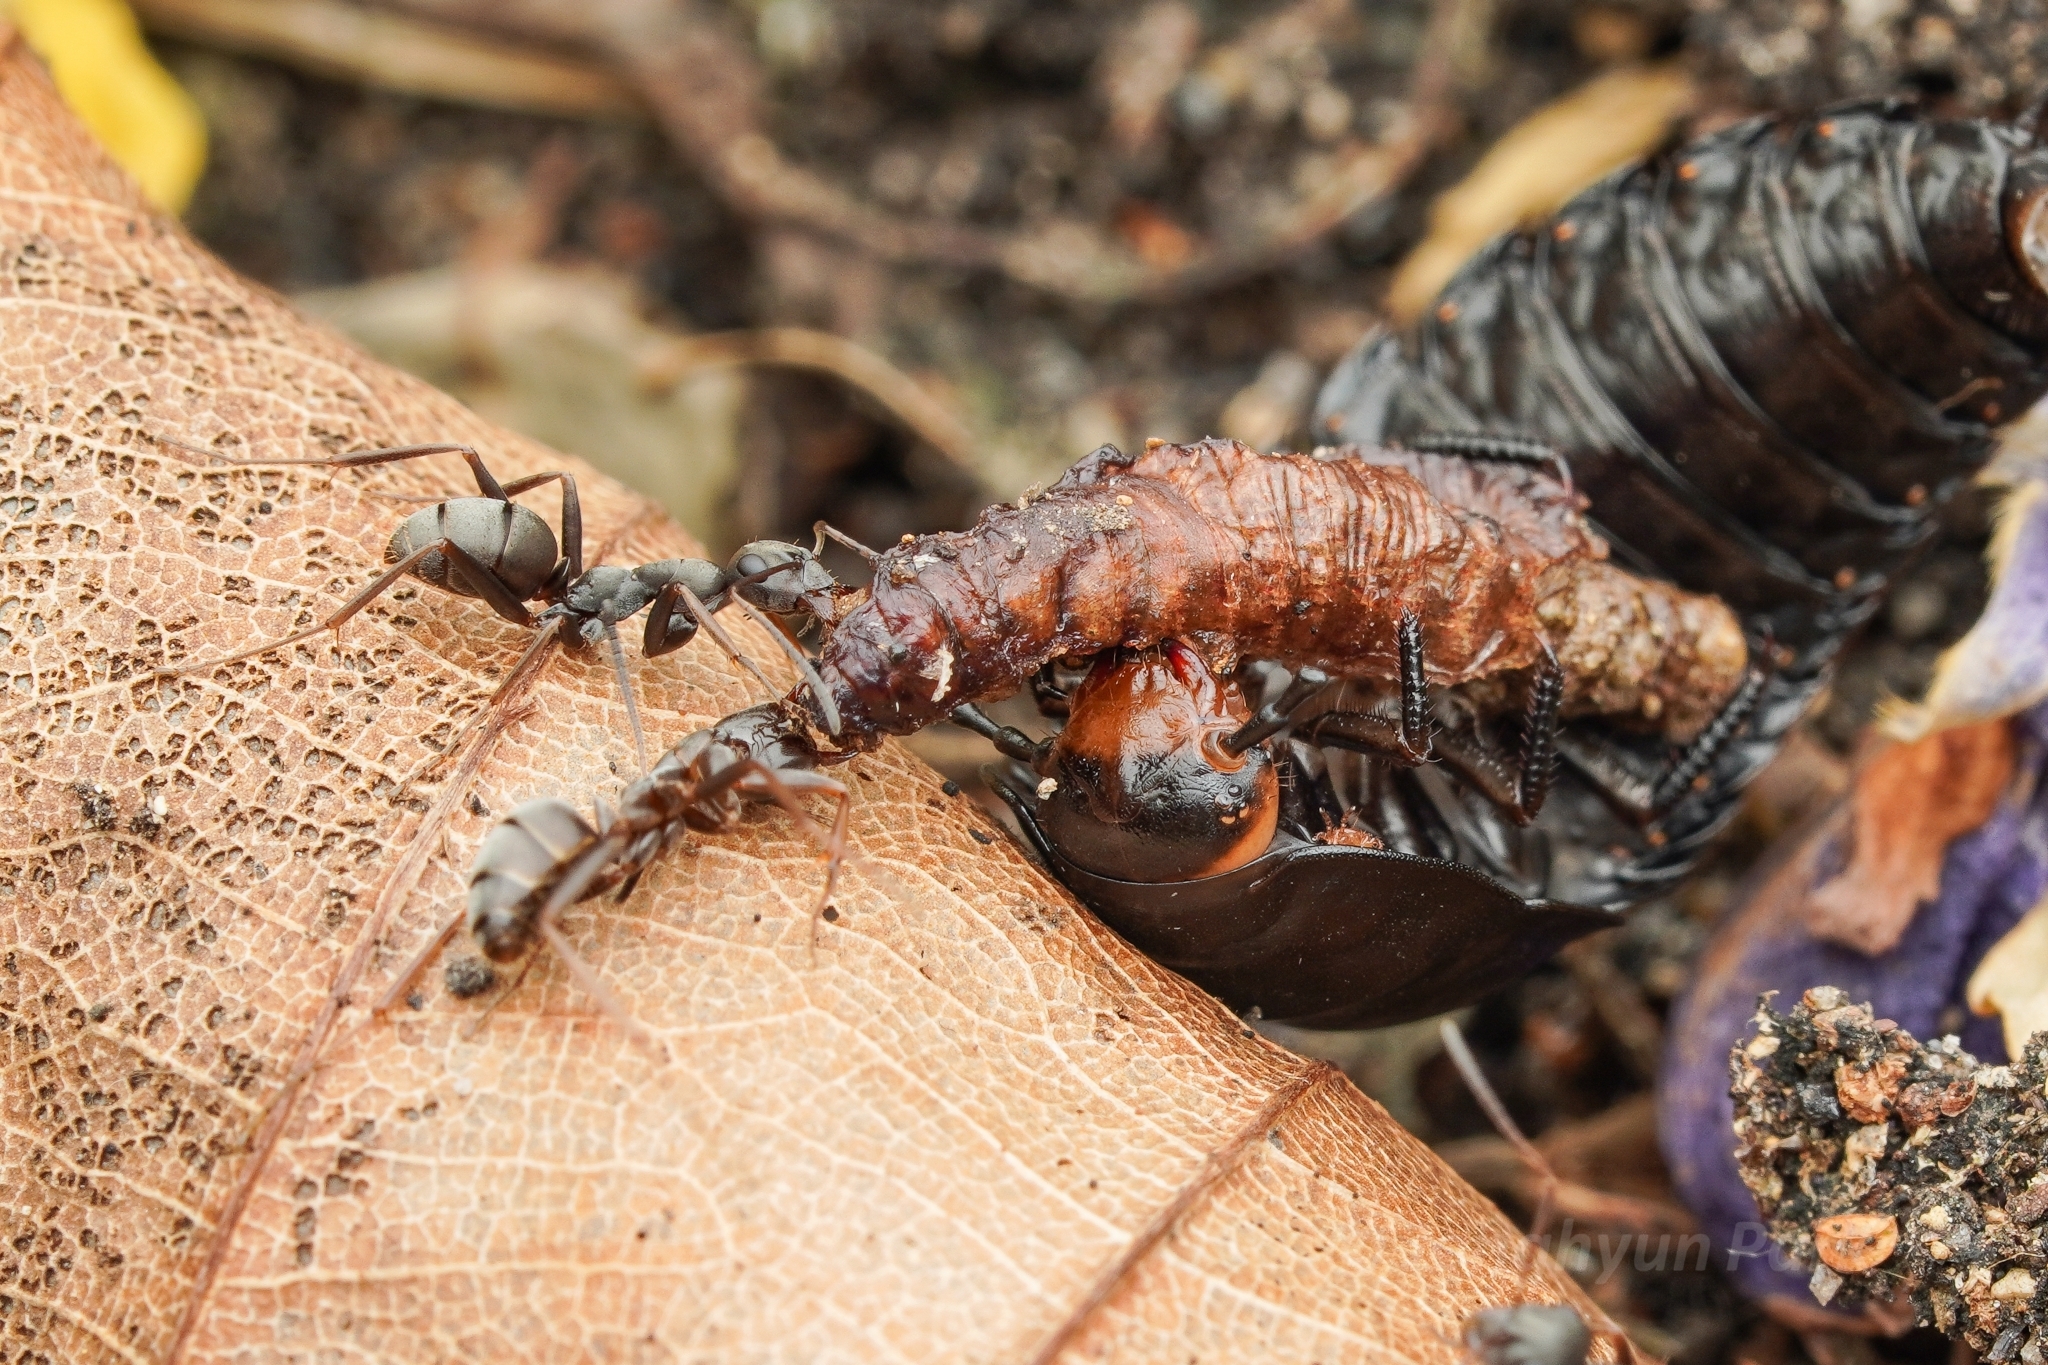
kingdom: Animalia
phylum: Arthropoda
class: Insecta
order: Hymenoptera
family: Formicidae
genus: Formica
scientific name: Formica japonica
